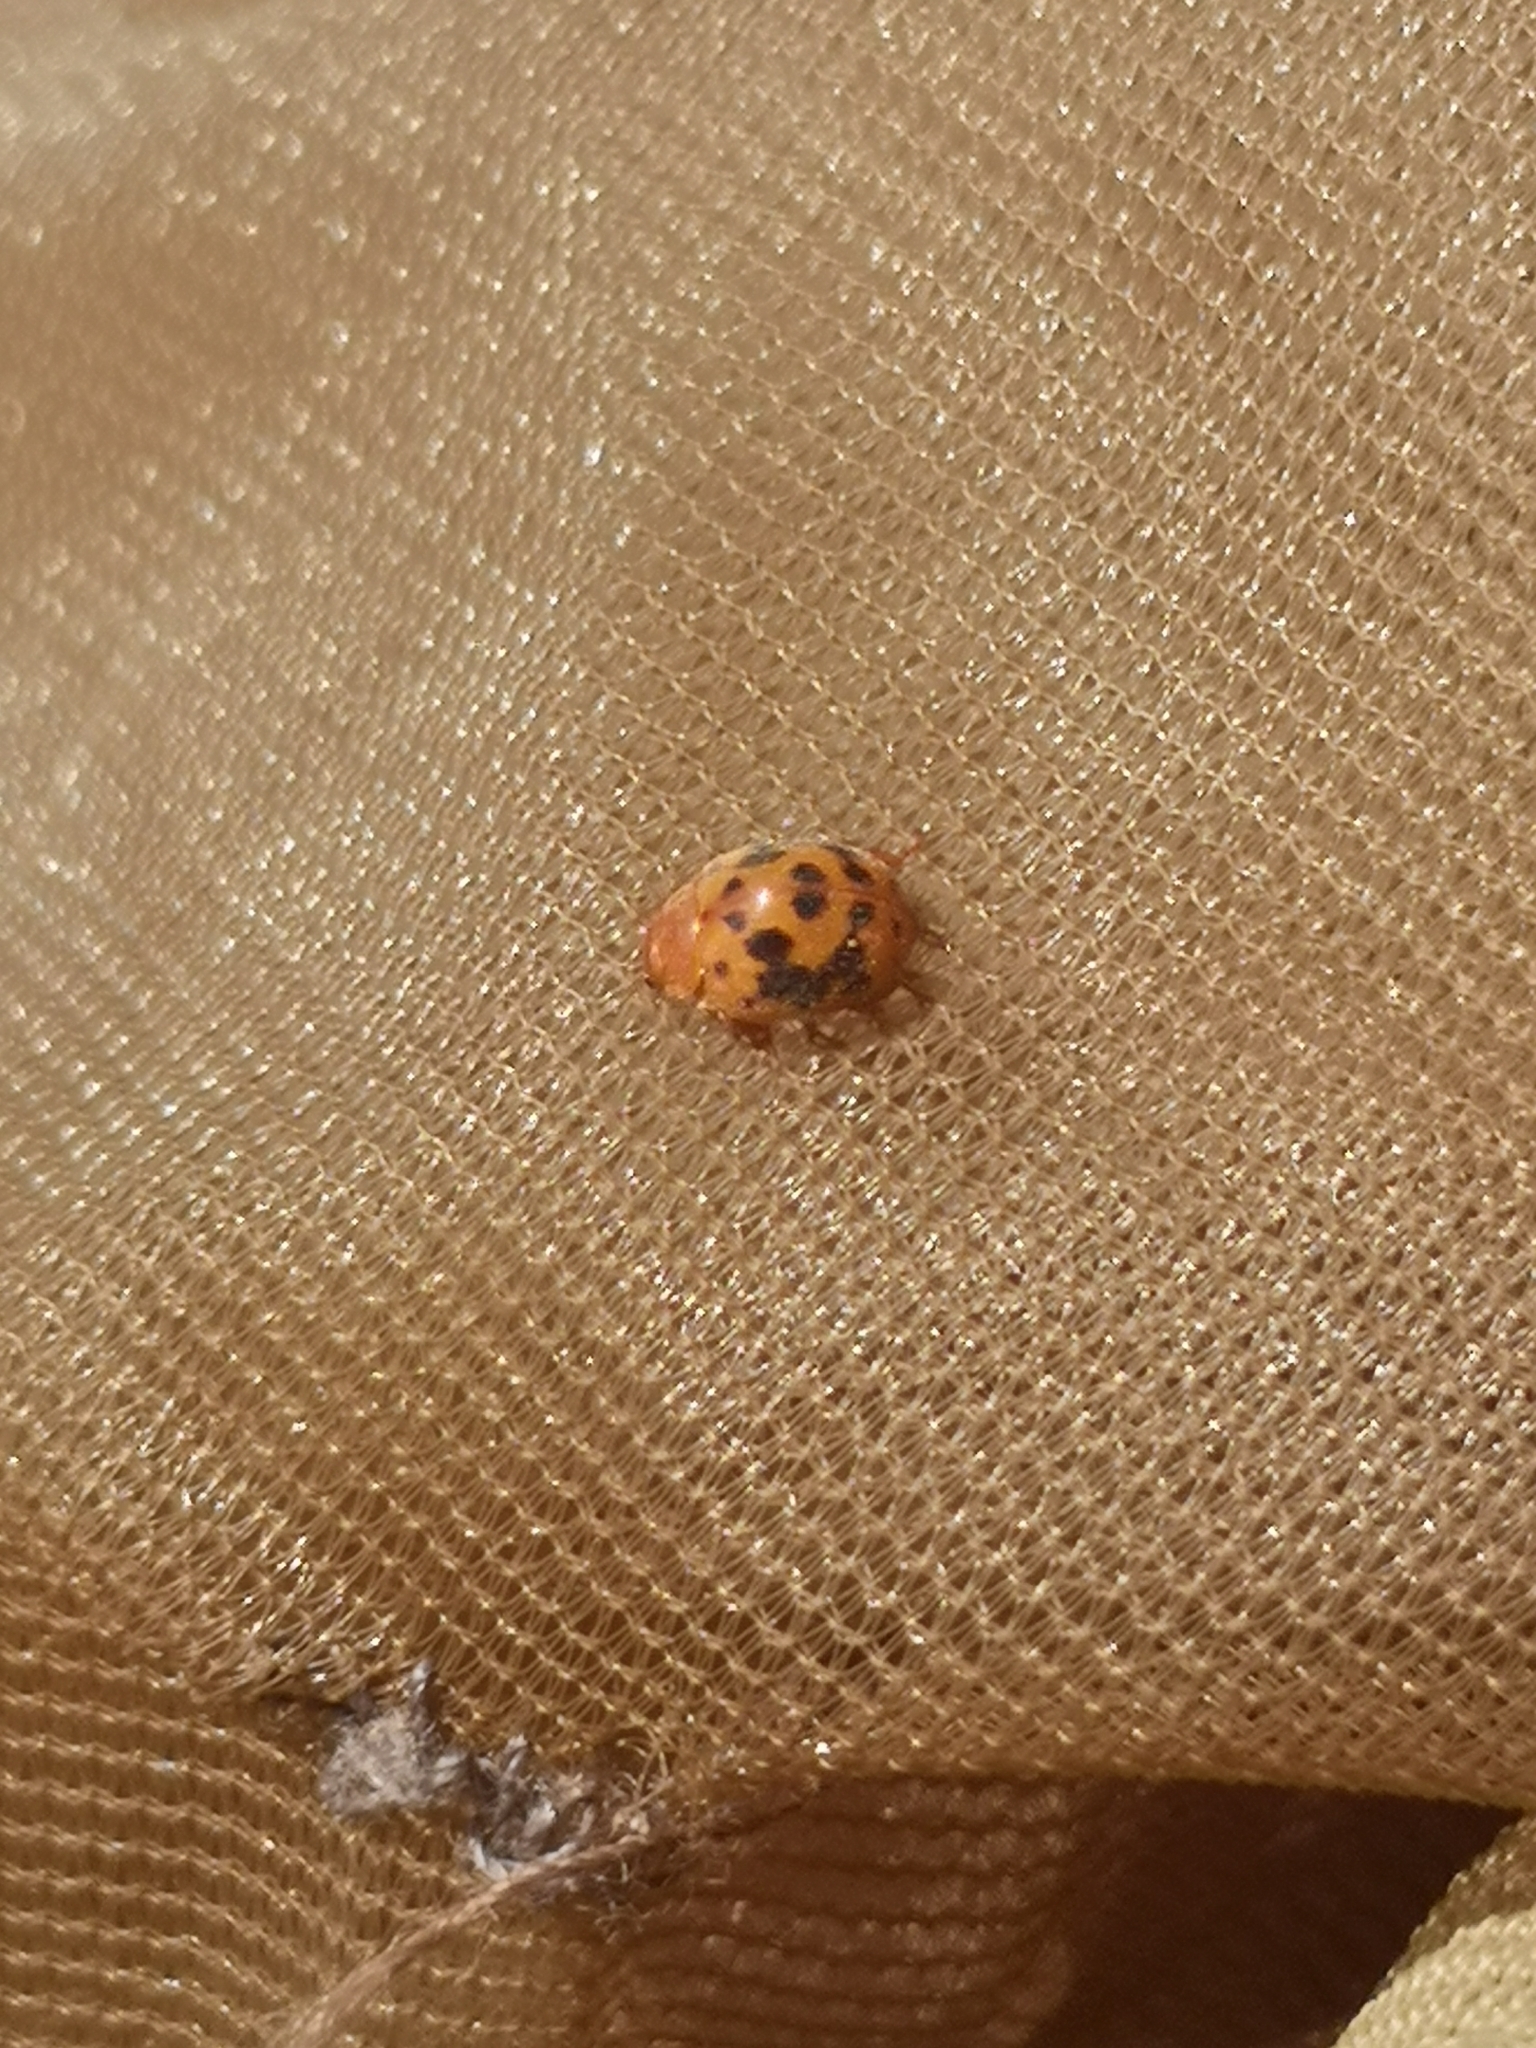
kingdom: Animalia
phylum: Arthropoda
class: Insecta
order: Coleoptera
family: Coccinellidae
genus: Subcoccinella
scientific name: Subcoccinella vigintiquatuorpunctata
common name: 24-spot ladybird
